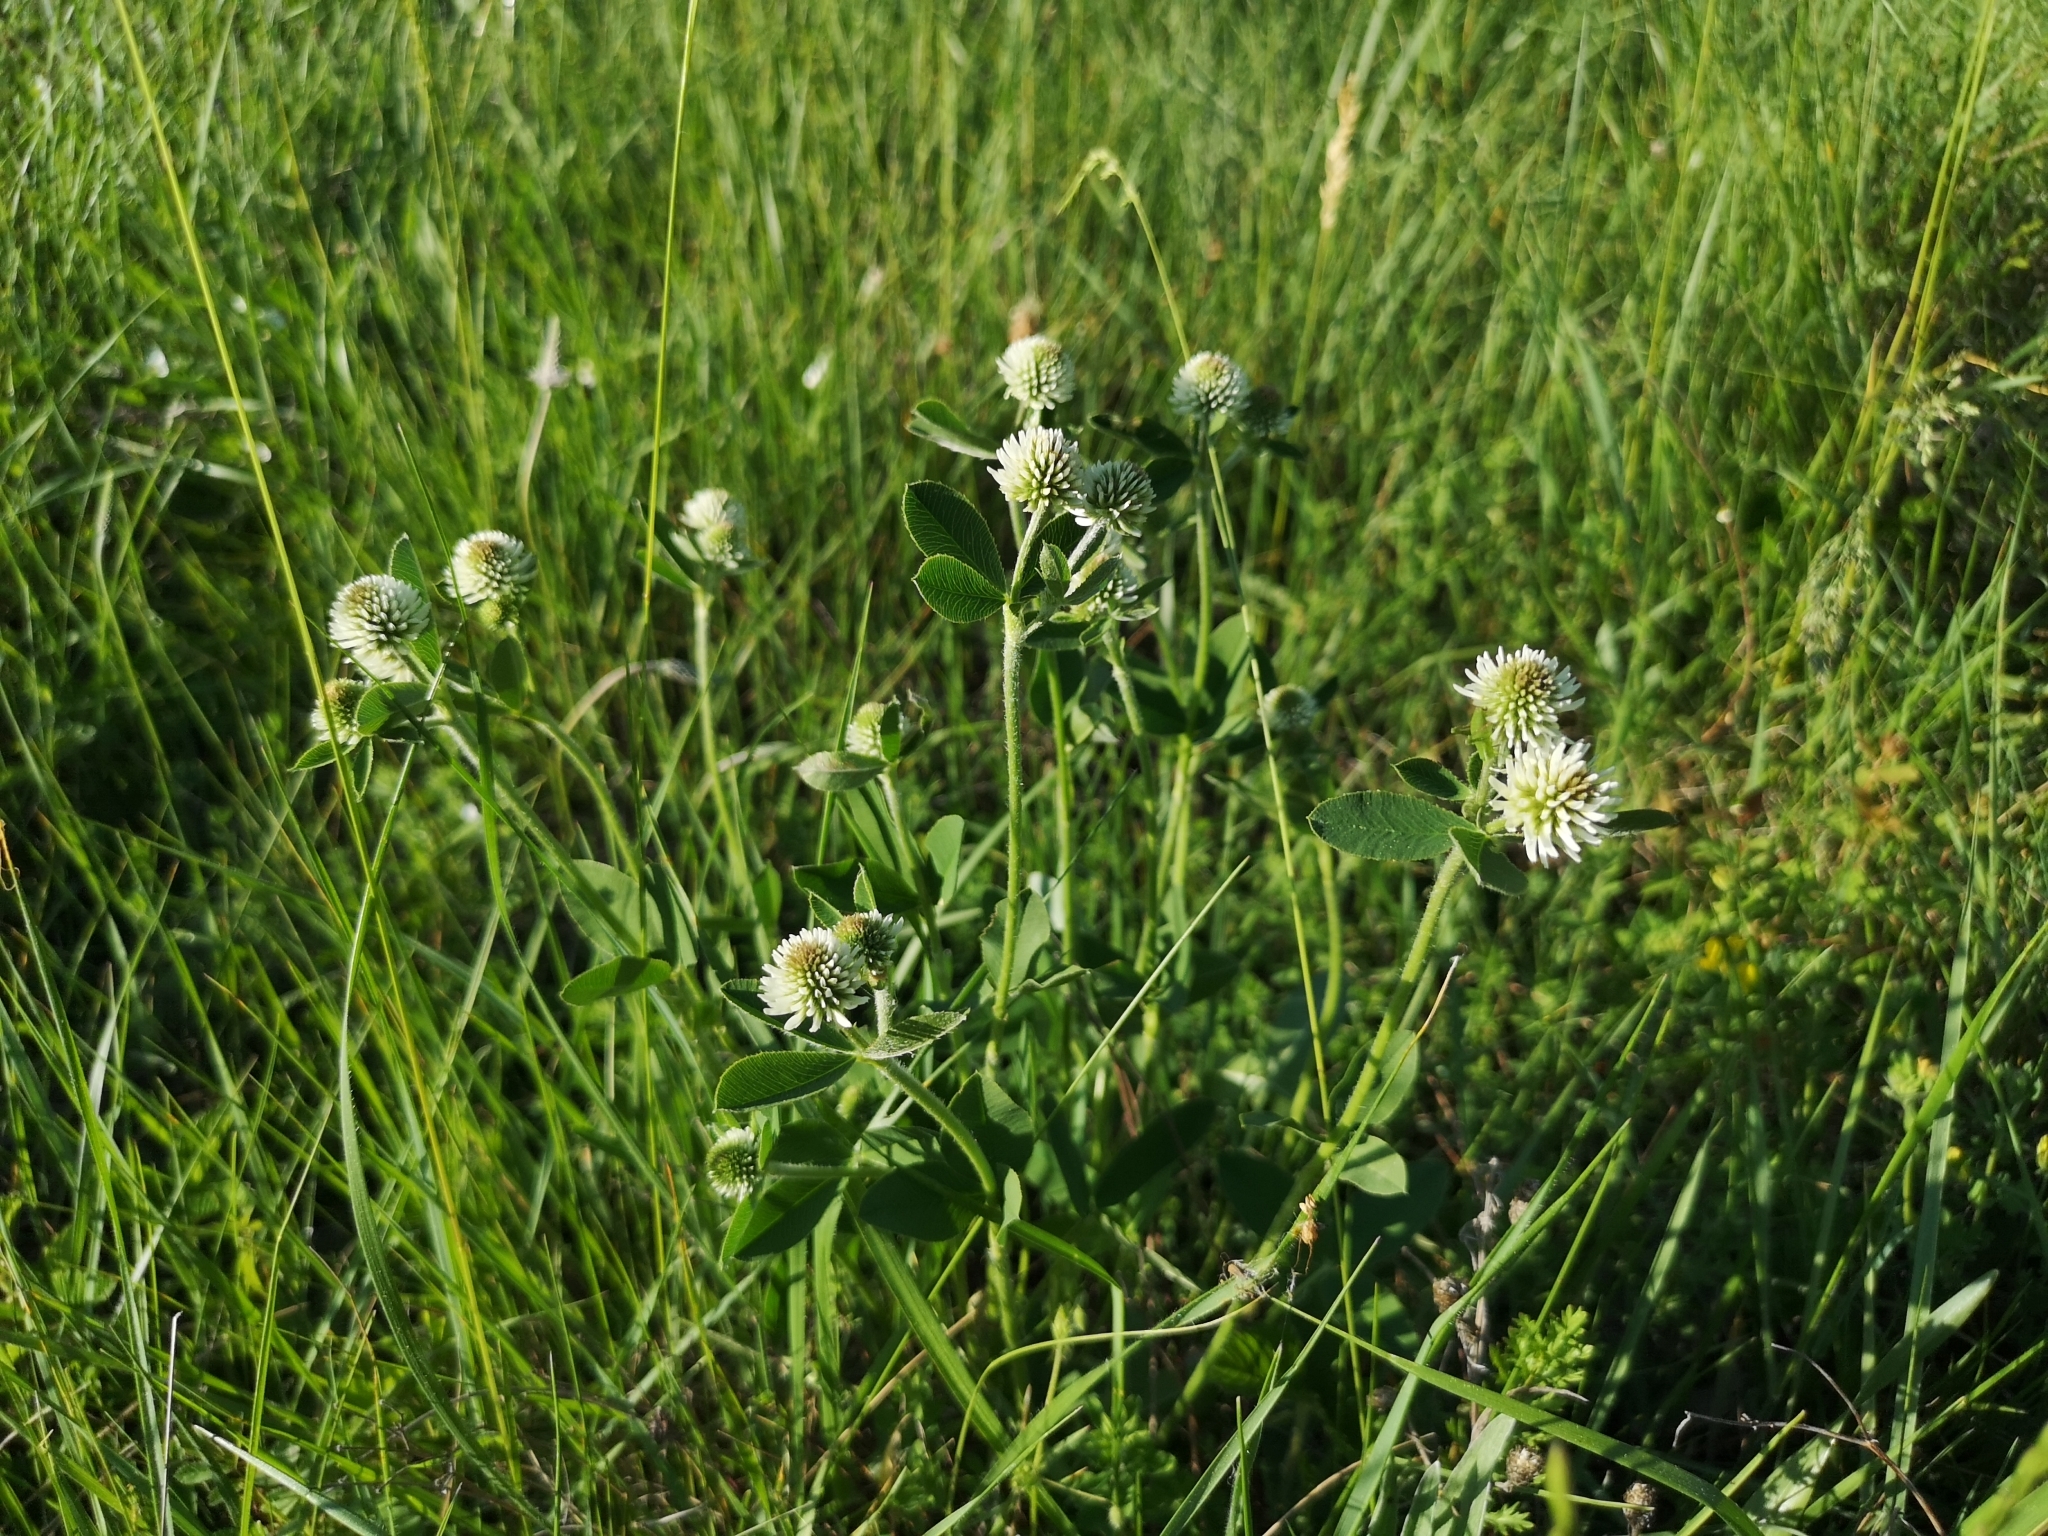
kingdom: Plantae
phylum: Tracheophyta
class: Magnoliopsida
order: Fabales
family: Fabaceae
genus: Trifolium
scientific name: Trifolium montanum
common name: Mountain clover
